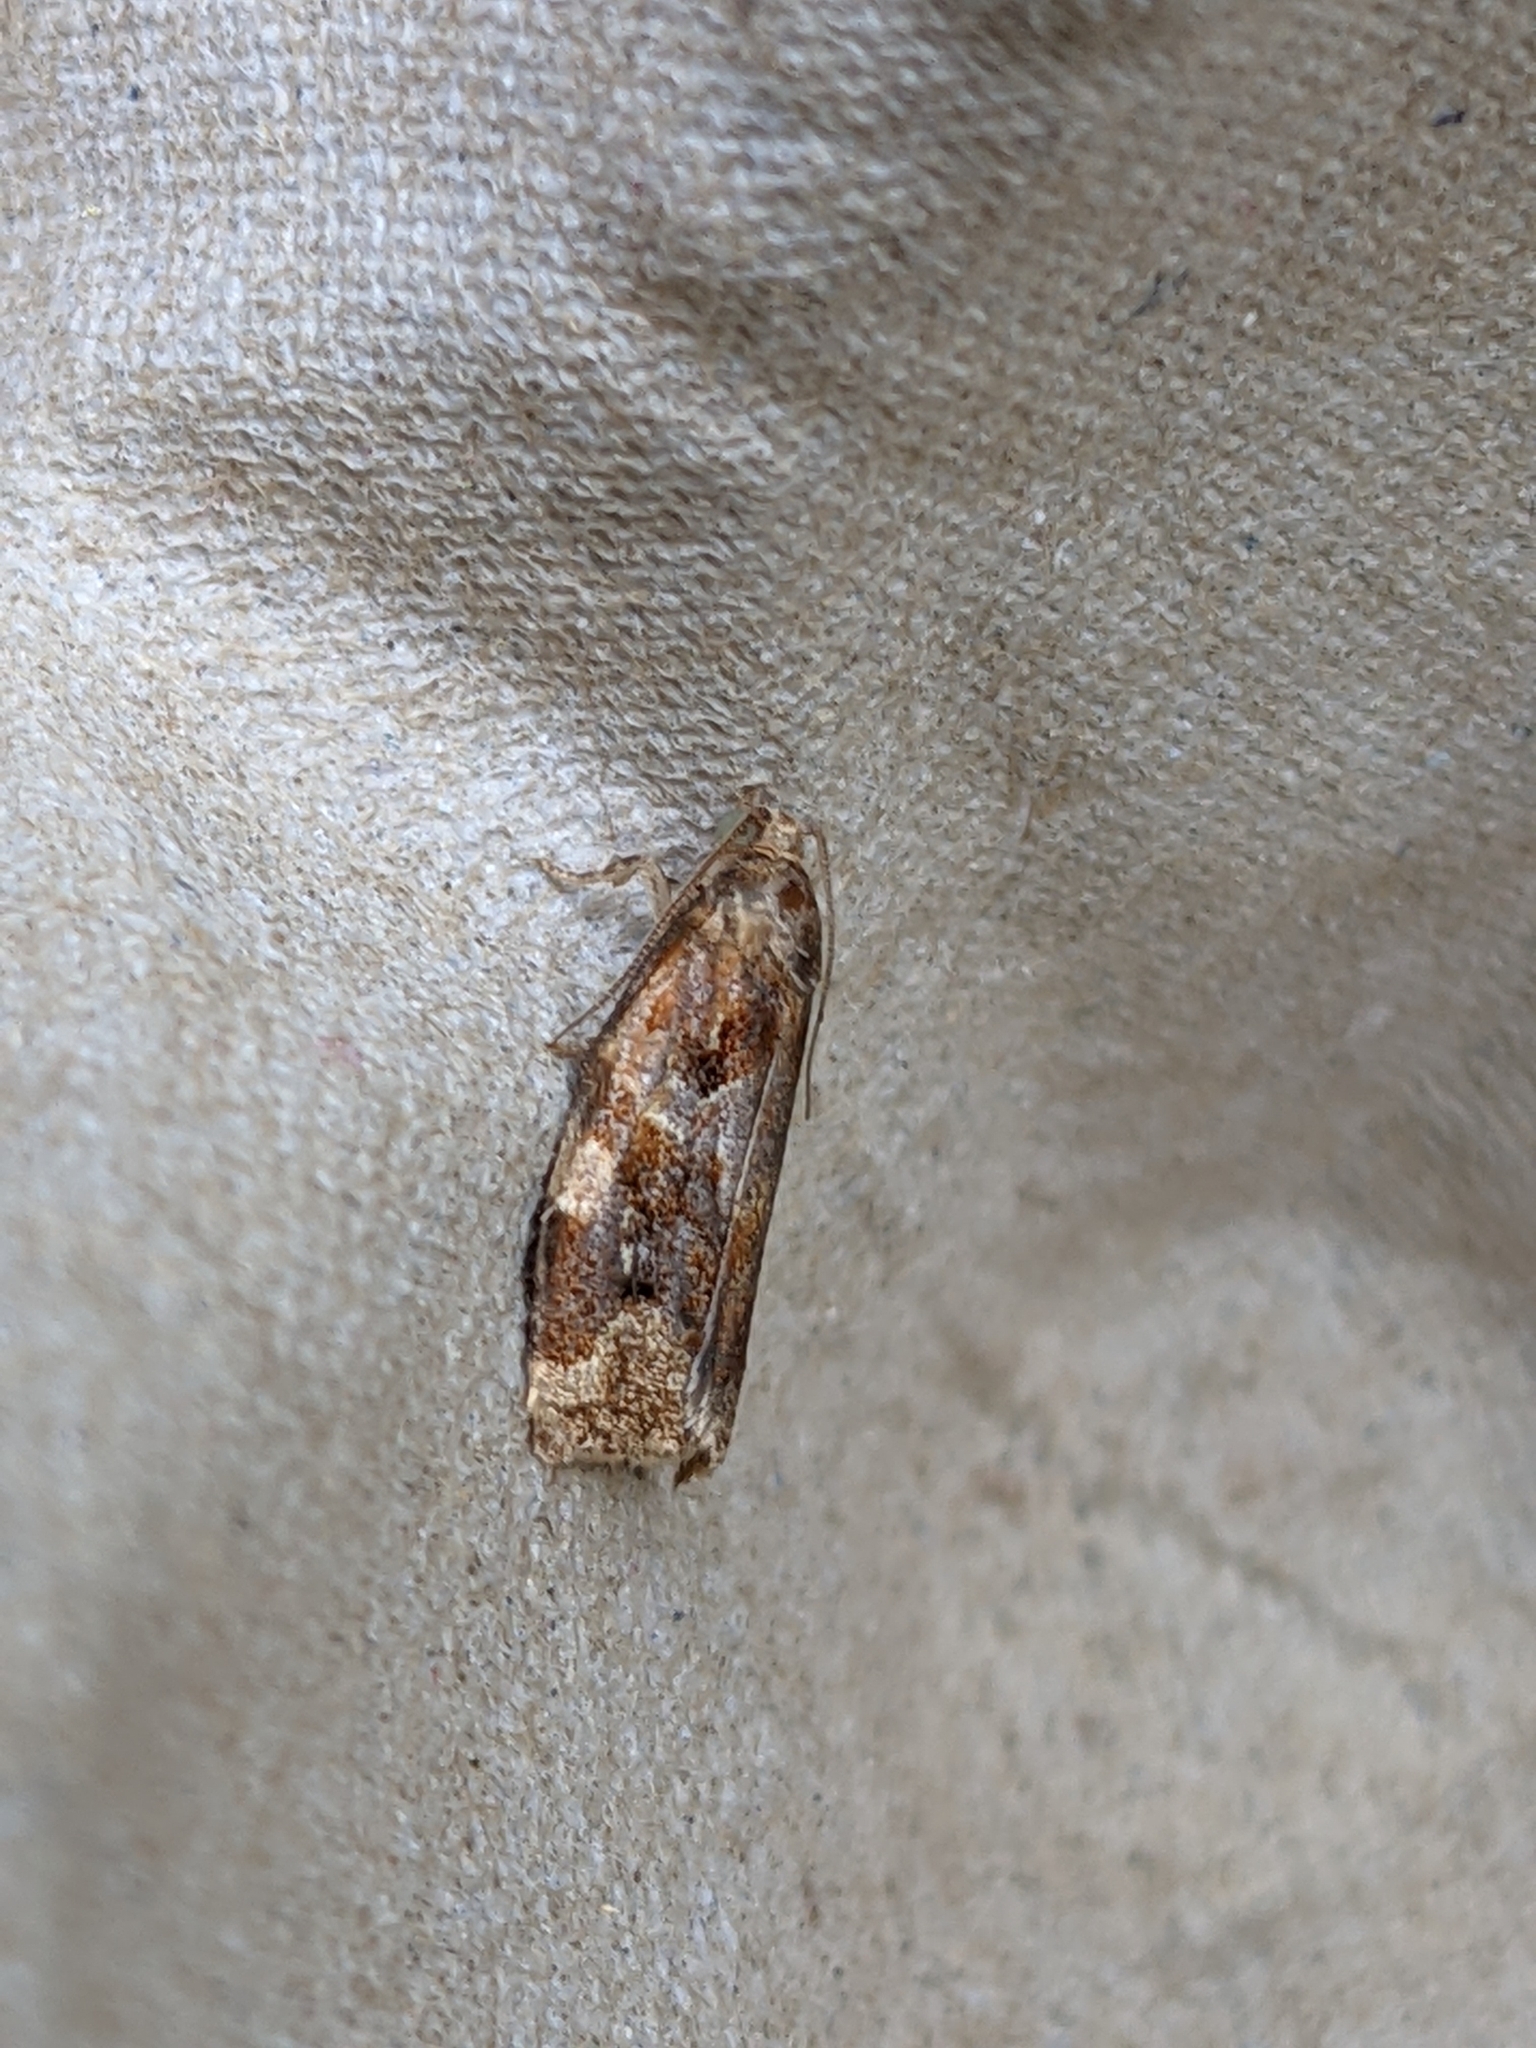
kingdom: Animalia
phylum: Arthropoda
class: Insecta
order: Lepidoptera
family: Tortricidae
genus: Archips
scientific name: Archips xylosteana
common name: Variegated golden tortrix
